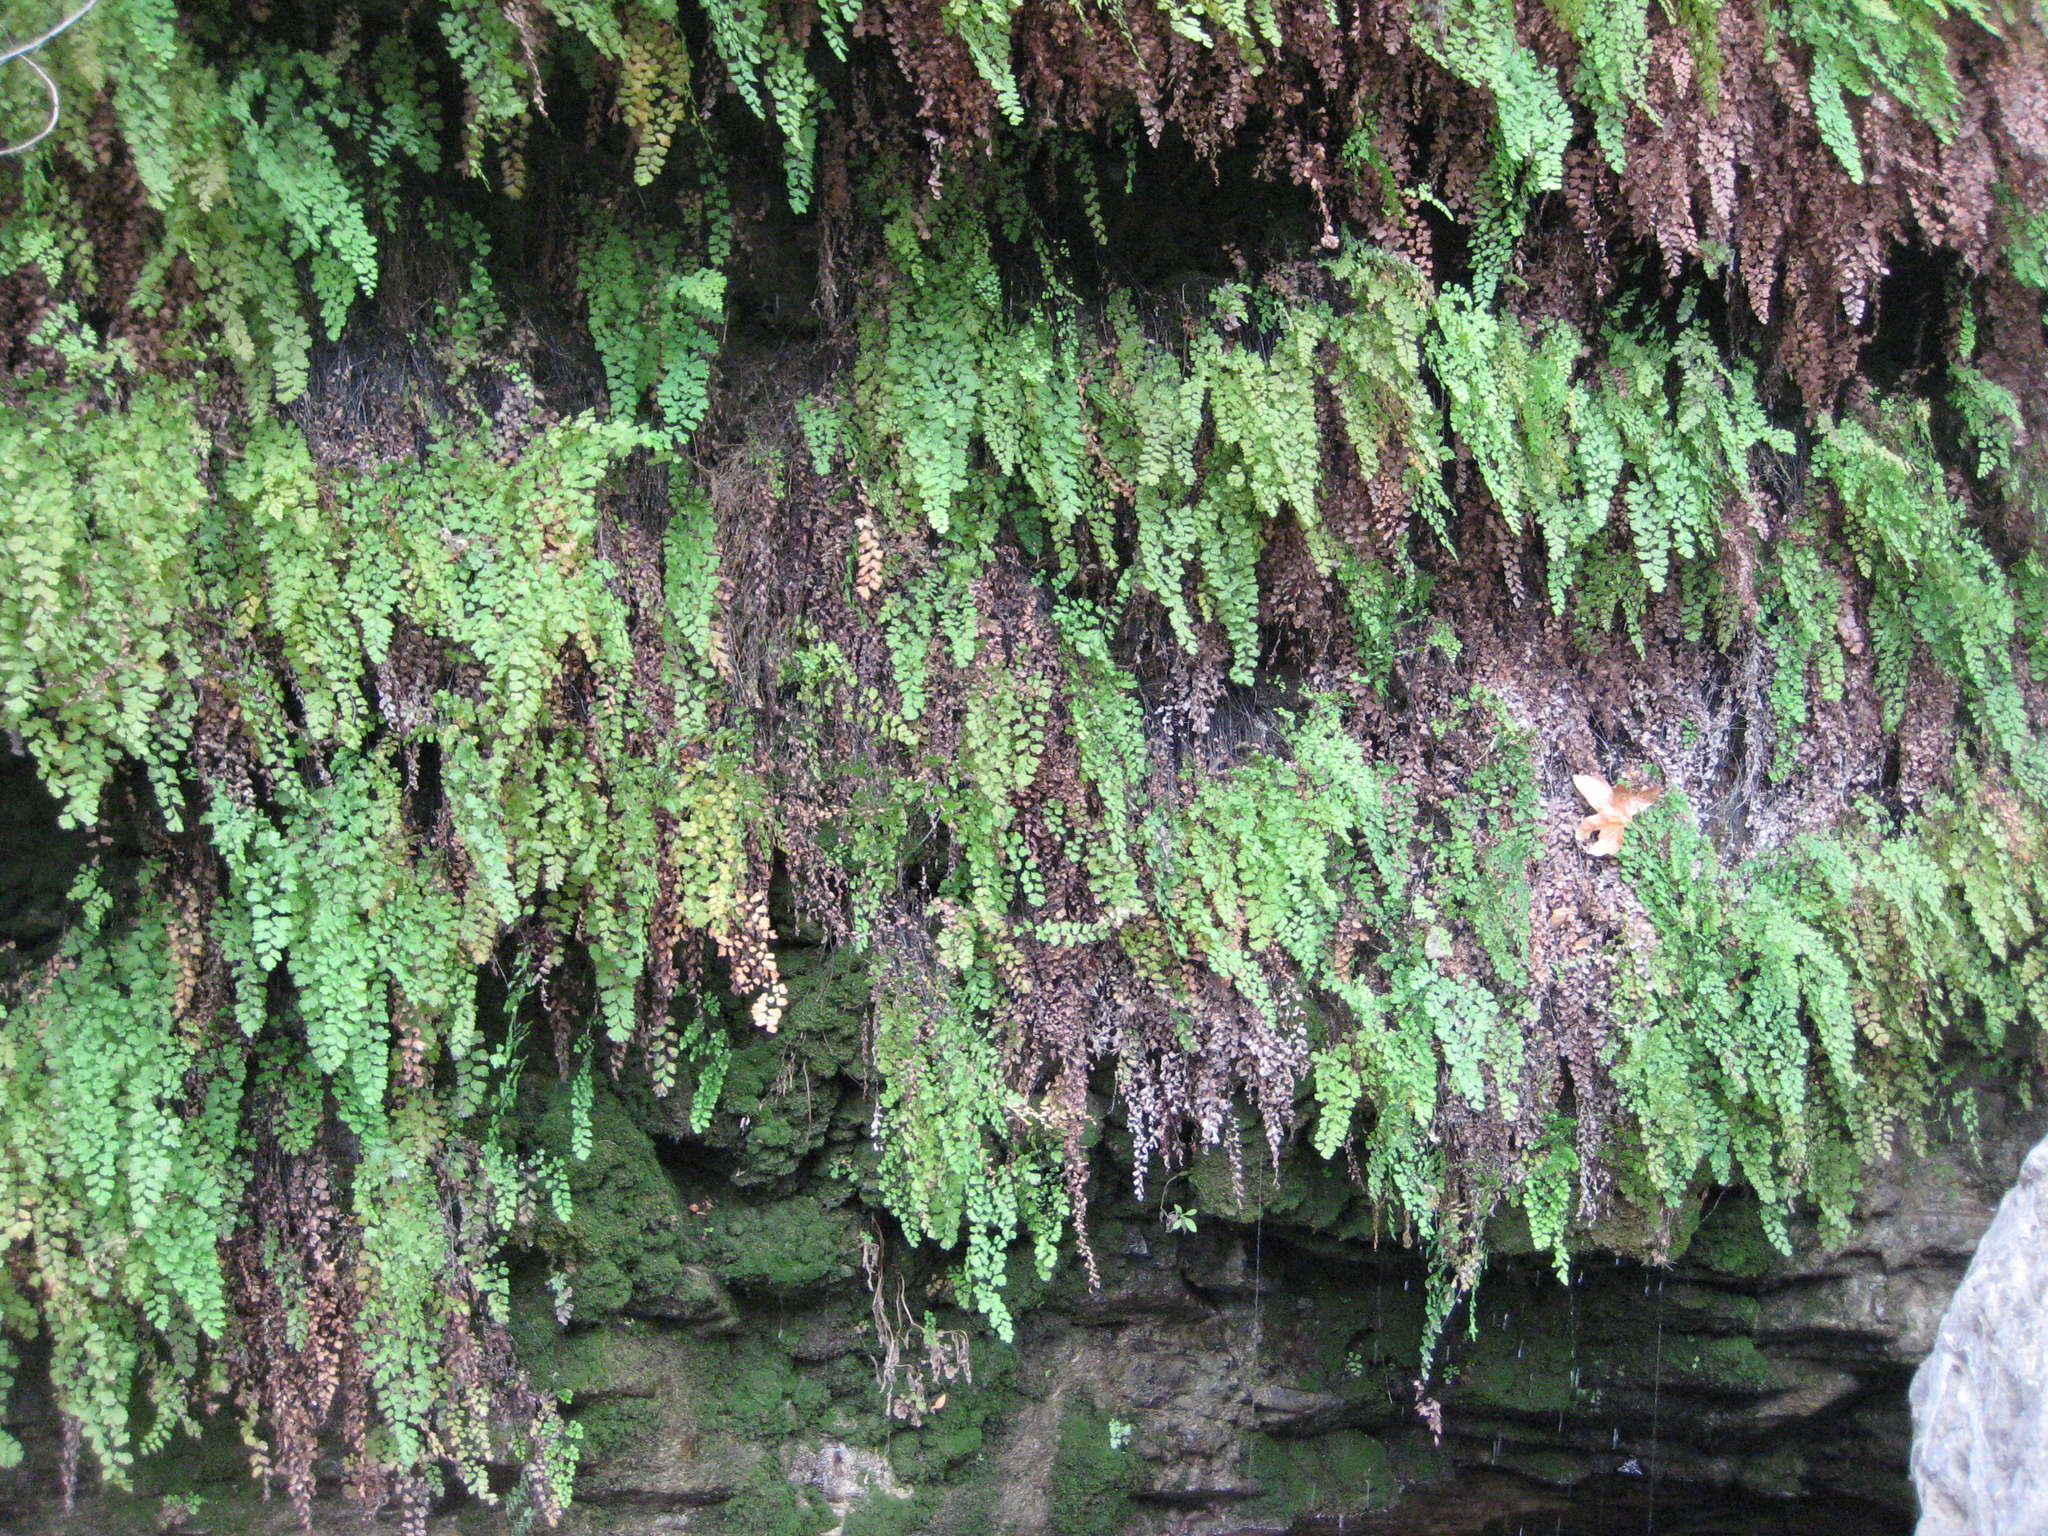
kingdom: Plantae
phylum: Tracheophyta
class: Polypodiopsida
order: Polypodiales
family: Pteridaceae
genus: Adiantum
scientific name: Adiantum capillus-veneris
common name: Maidenhair fern
